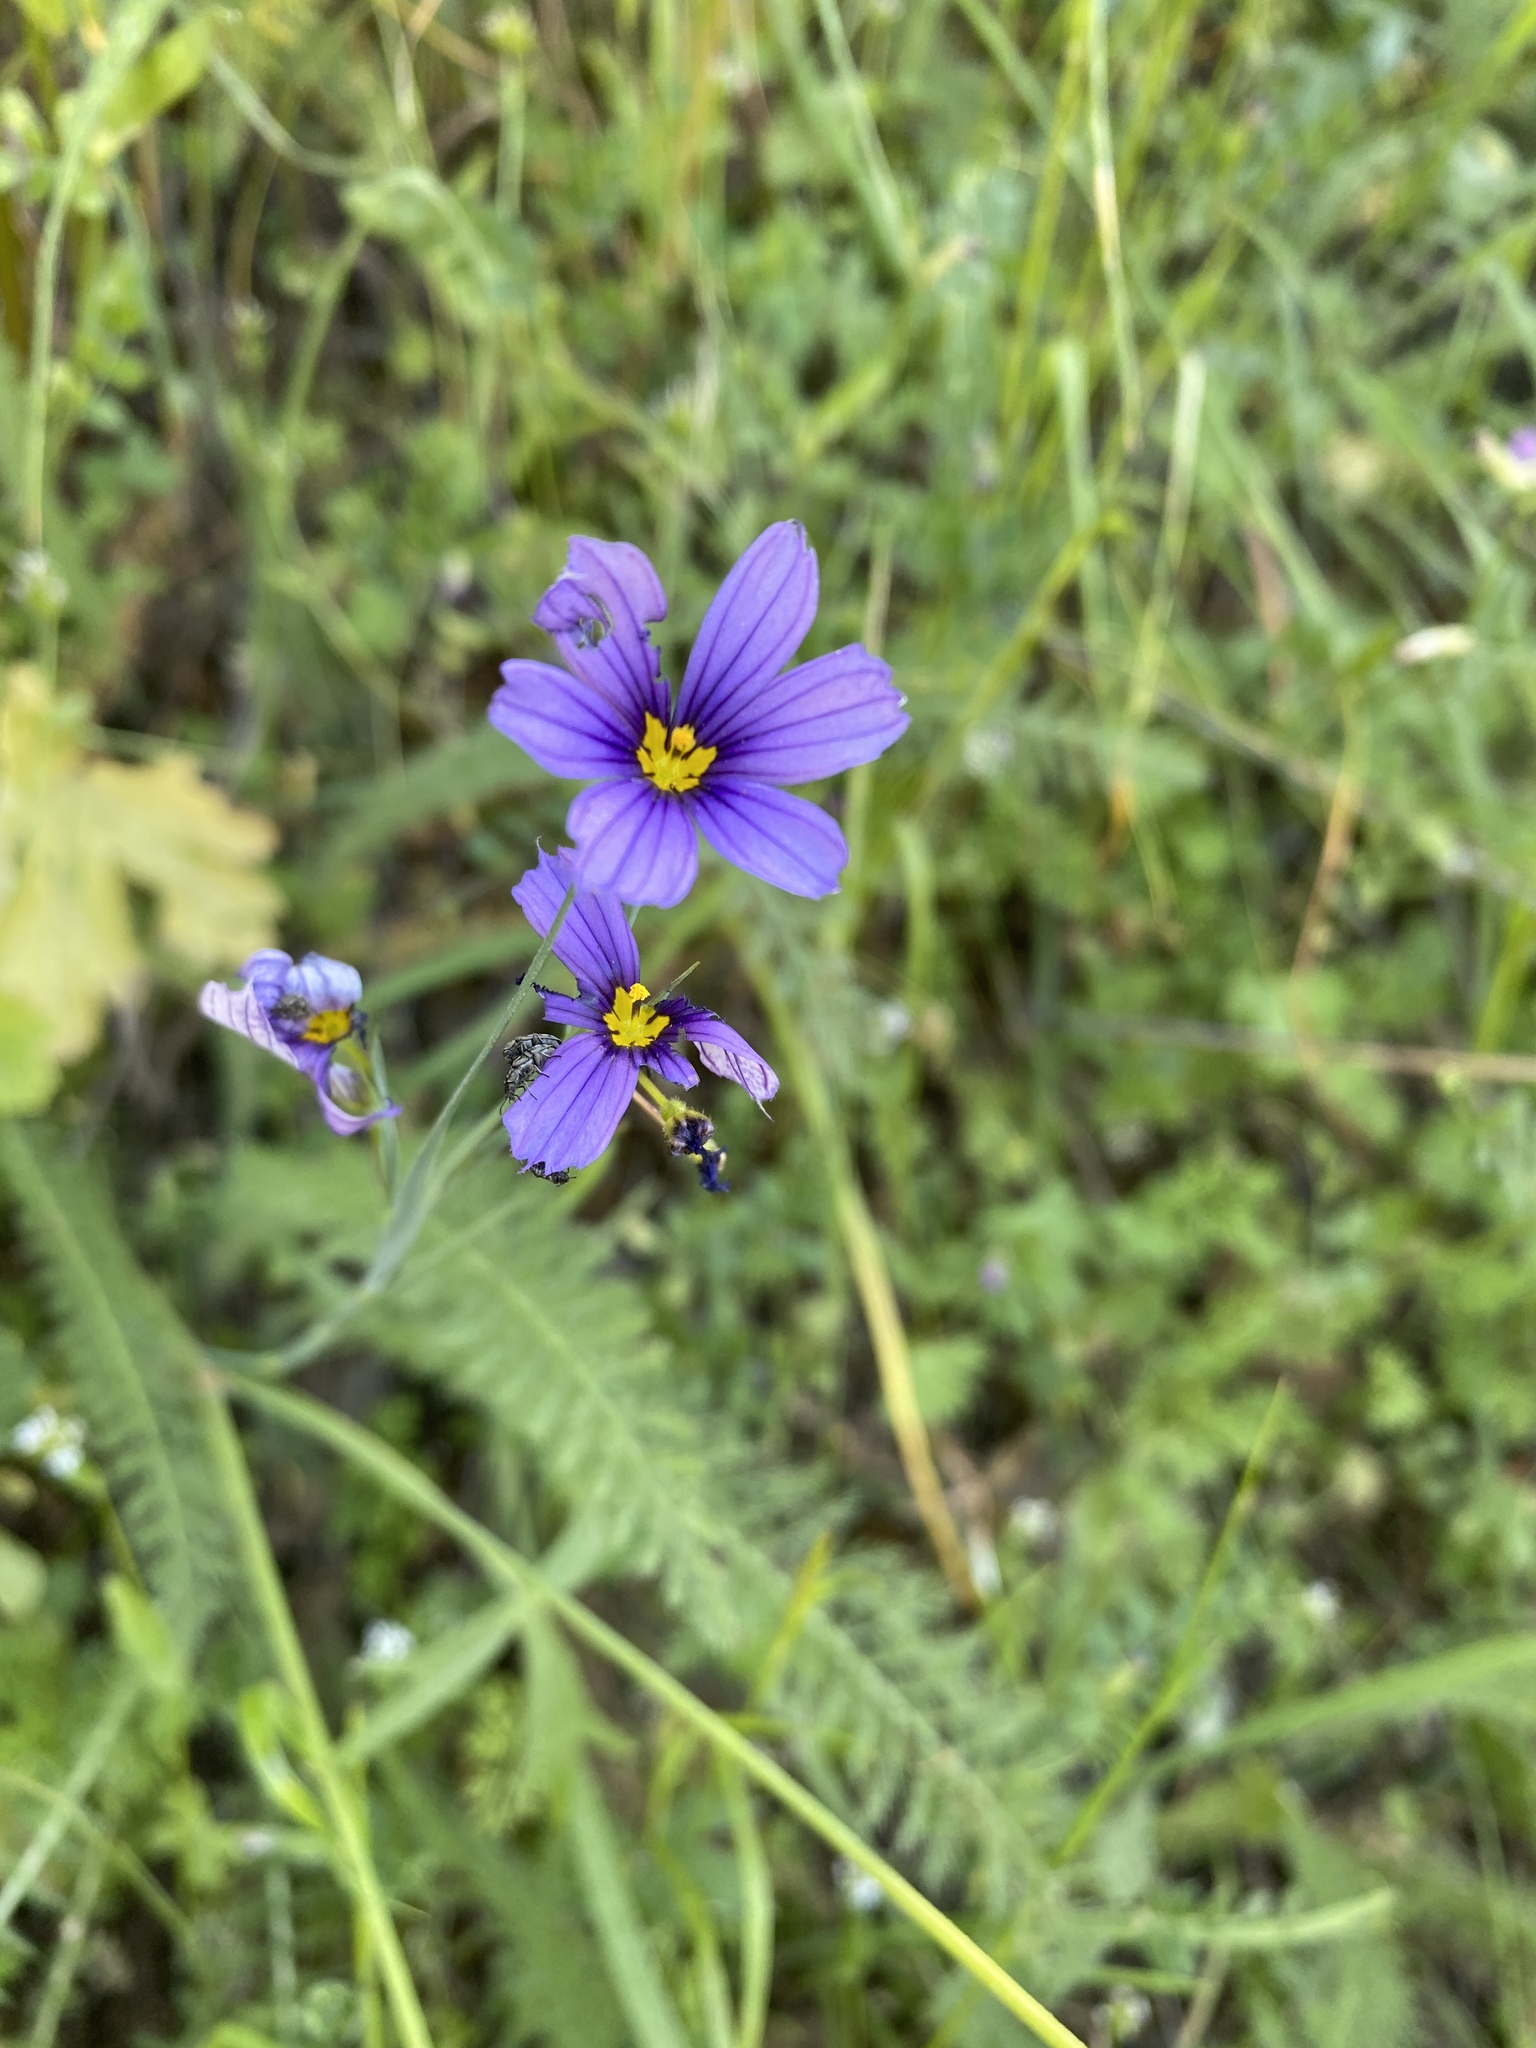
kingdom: Plantae
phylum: Tracheophyta
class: Liliopsida
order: Asparagales
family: Iridaceae
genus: Sisyrinchium
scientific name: Sisyrinchium bellum
